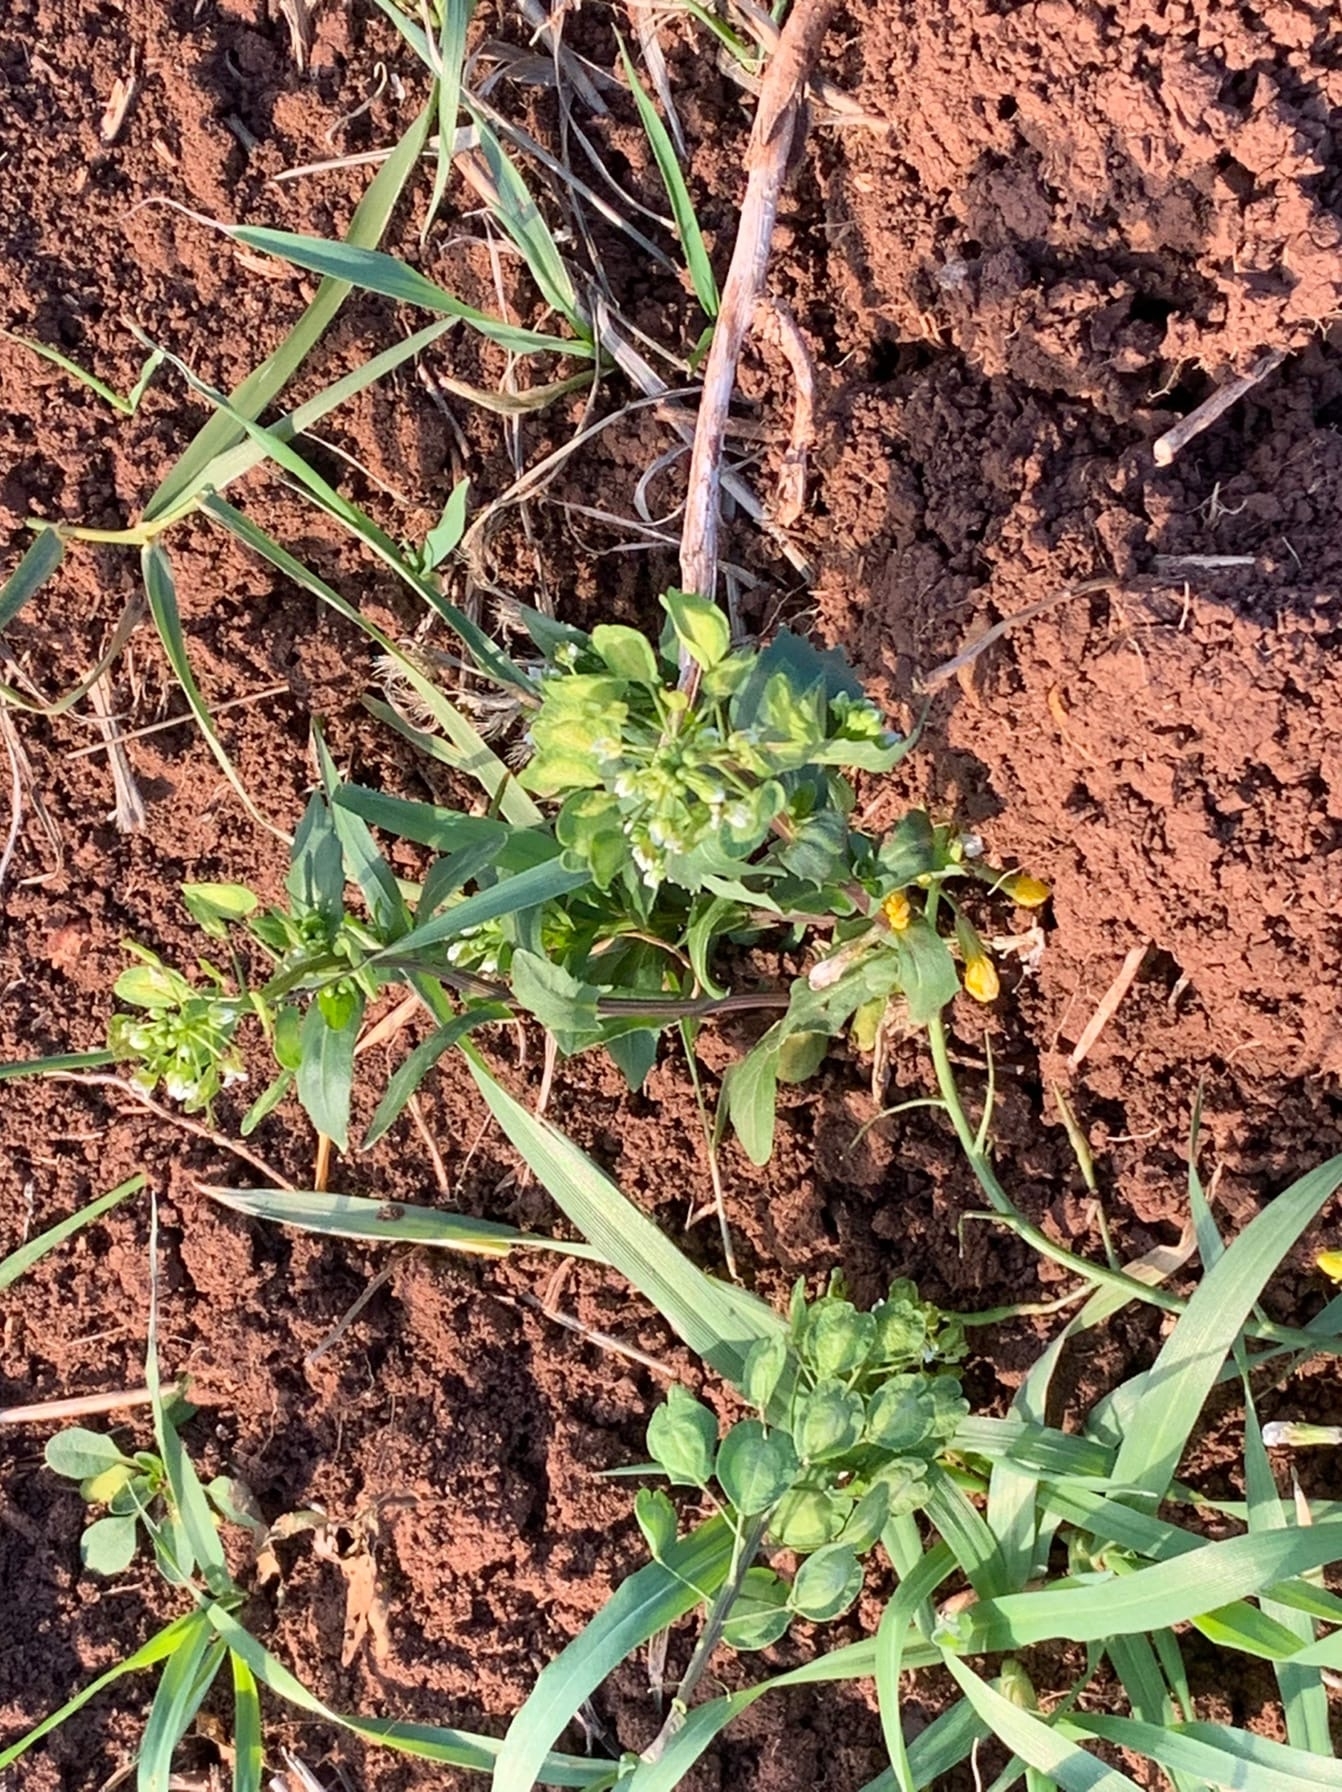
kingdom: Plantae
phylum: Tracheophyta
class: Magnoliopsida
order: Brassicales
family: Brassicaceae
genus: Thlaspi
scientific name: Thlaspi arvense
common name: Field pennycress
